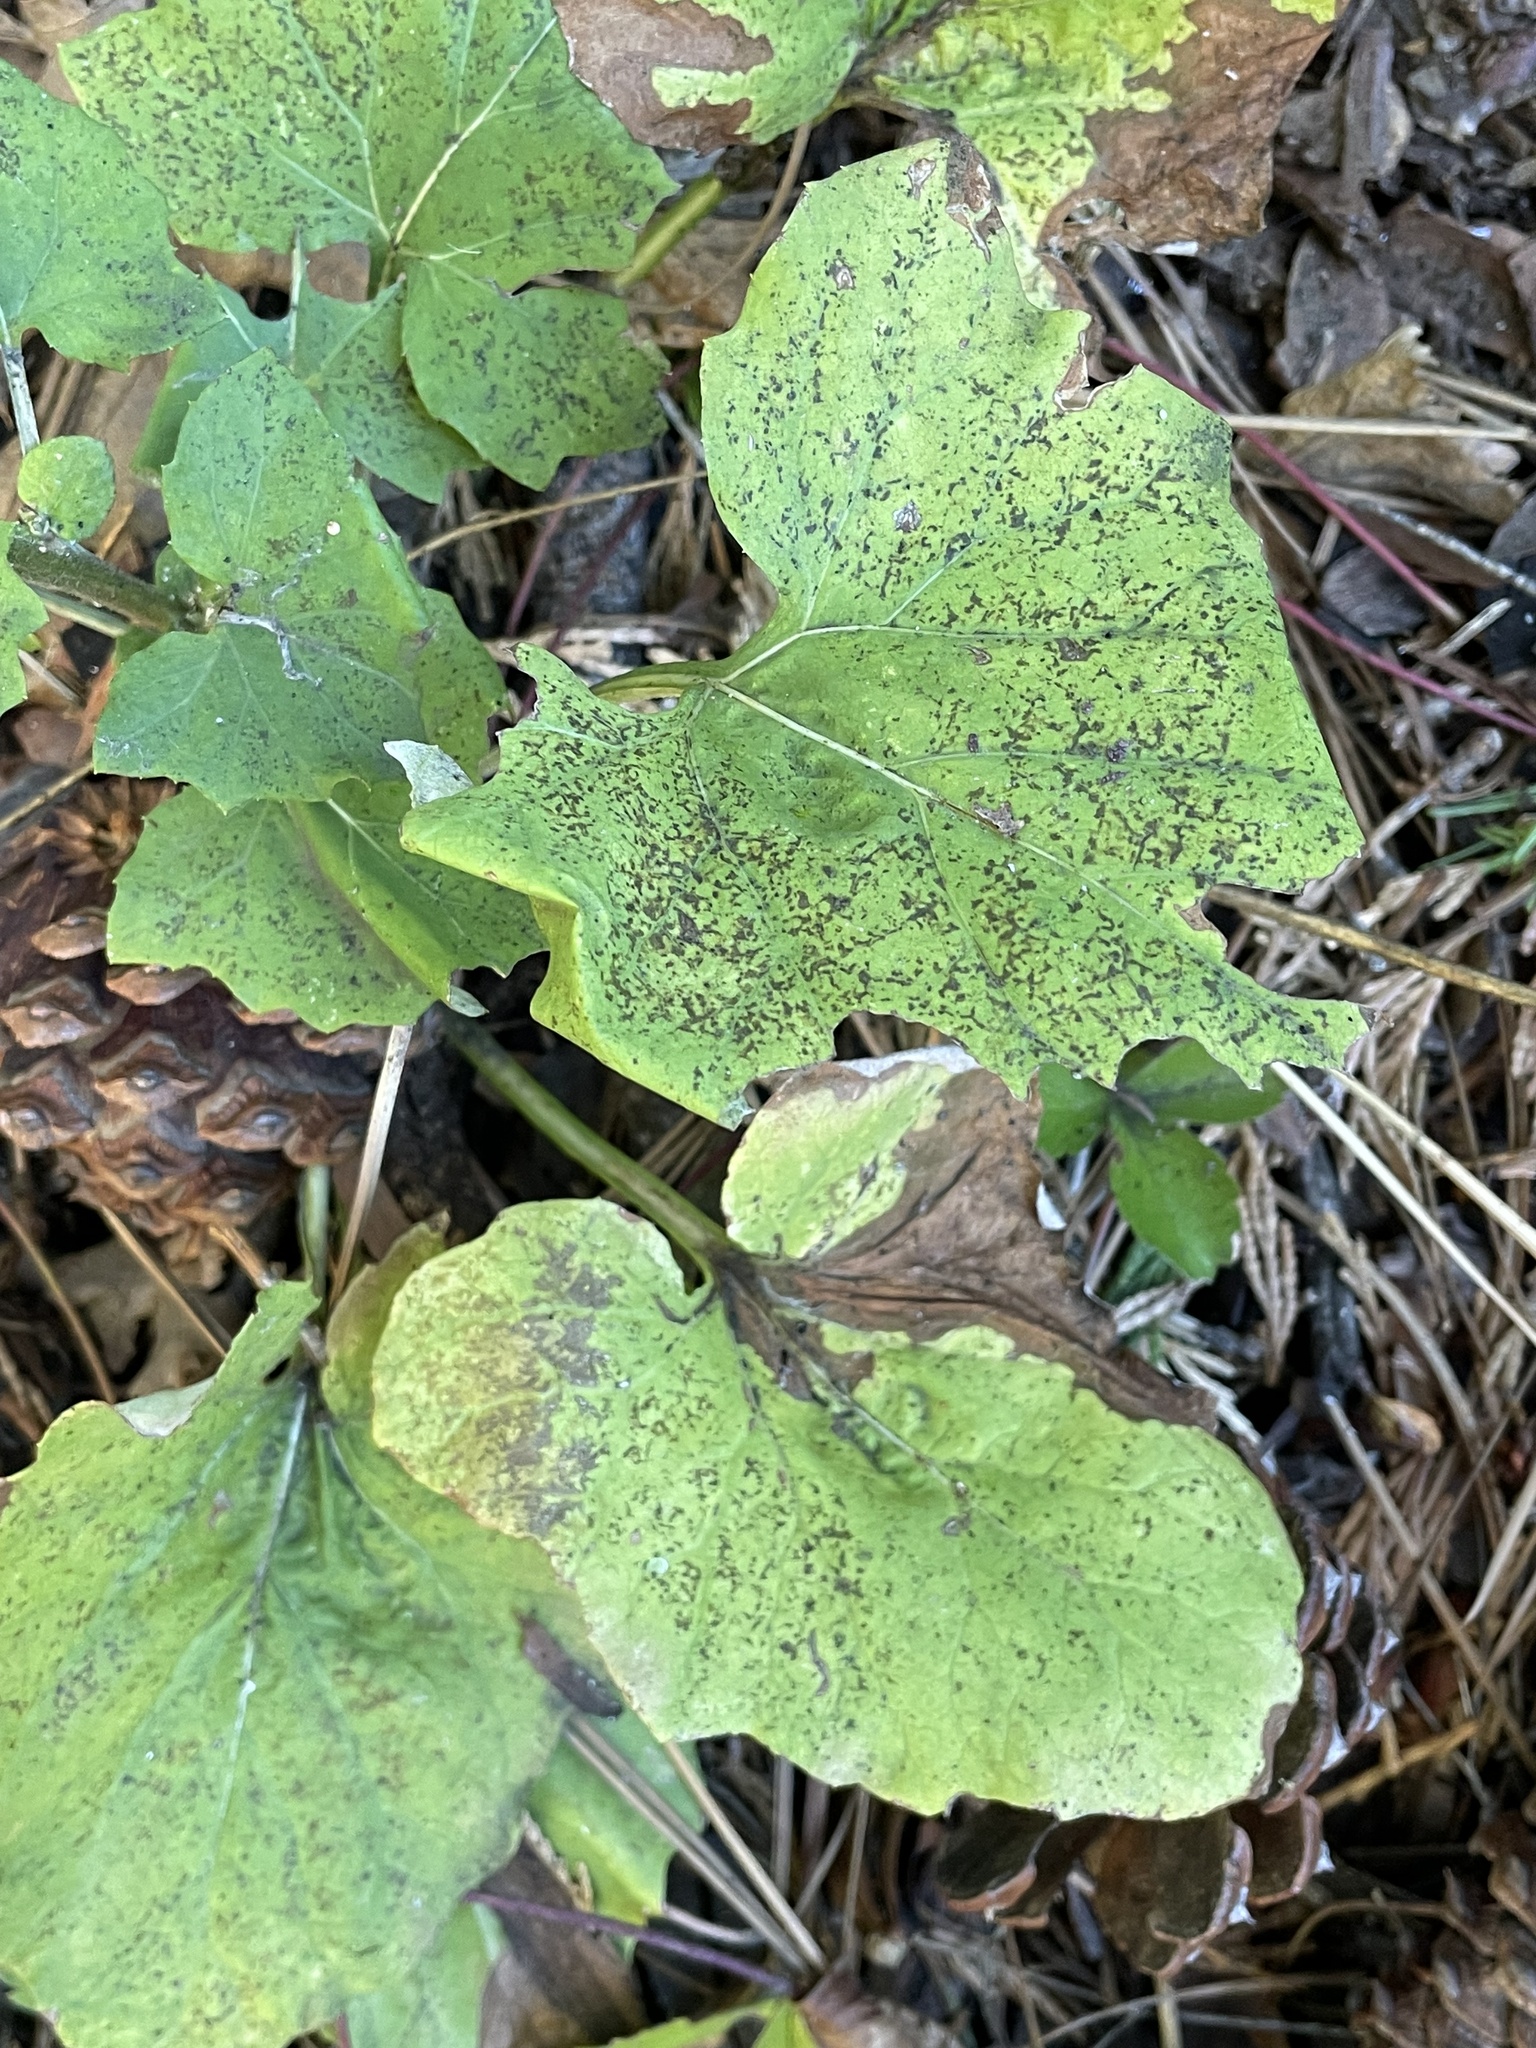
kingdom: Plantae
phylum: Tracheophyta
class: Magnoliopsida
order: Asterales
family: Asteraceae
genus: Adenocaulon
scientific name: Adenocaulon bicolor
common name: Trailplant
